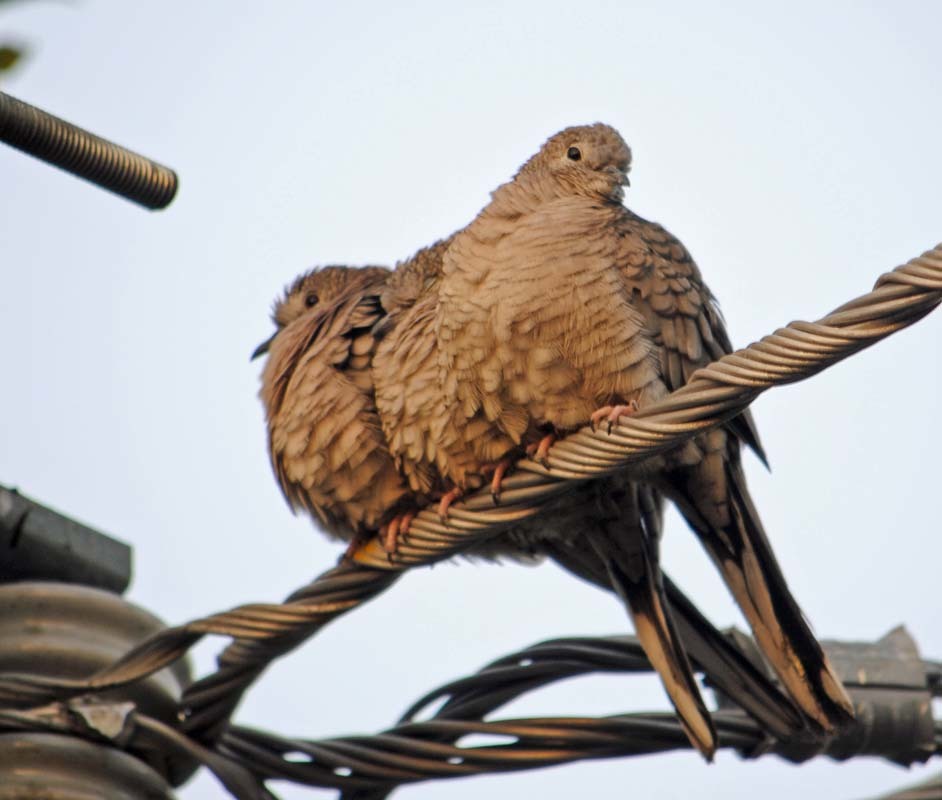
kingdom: Animalia
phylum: Chordata
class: Aves
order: Columbiformes
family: Columbidae
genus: Columbina
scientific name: Columbina inca
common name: Inca dove
